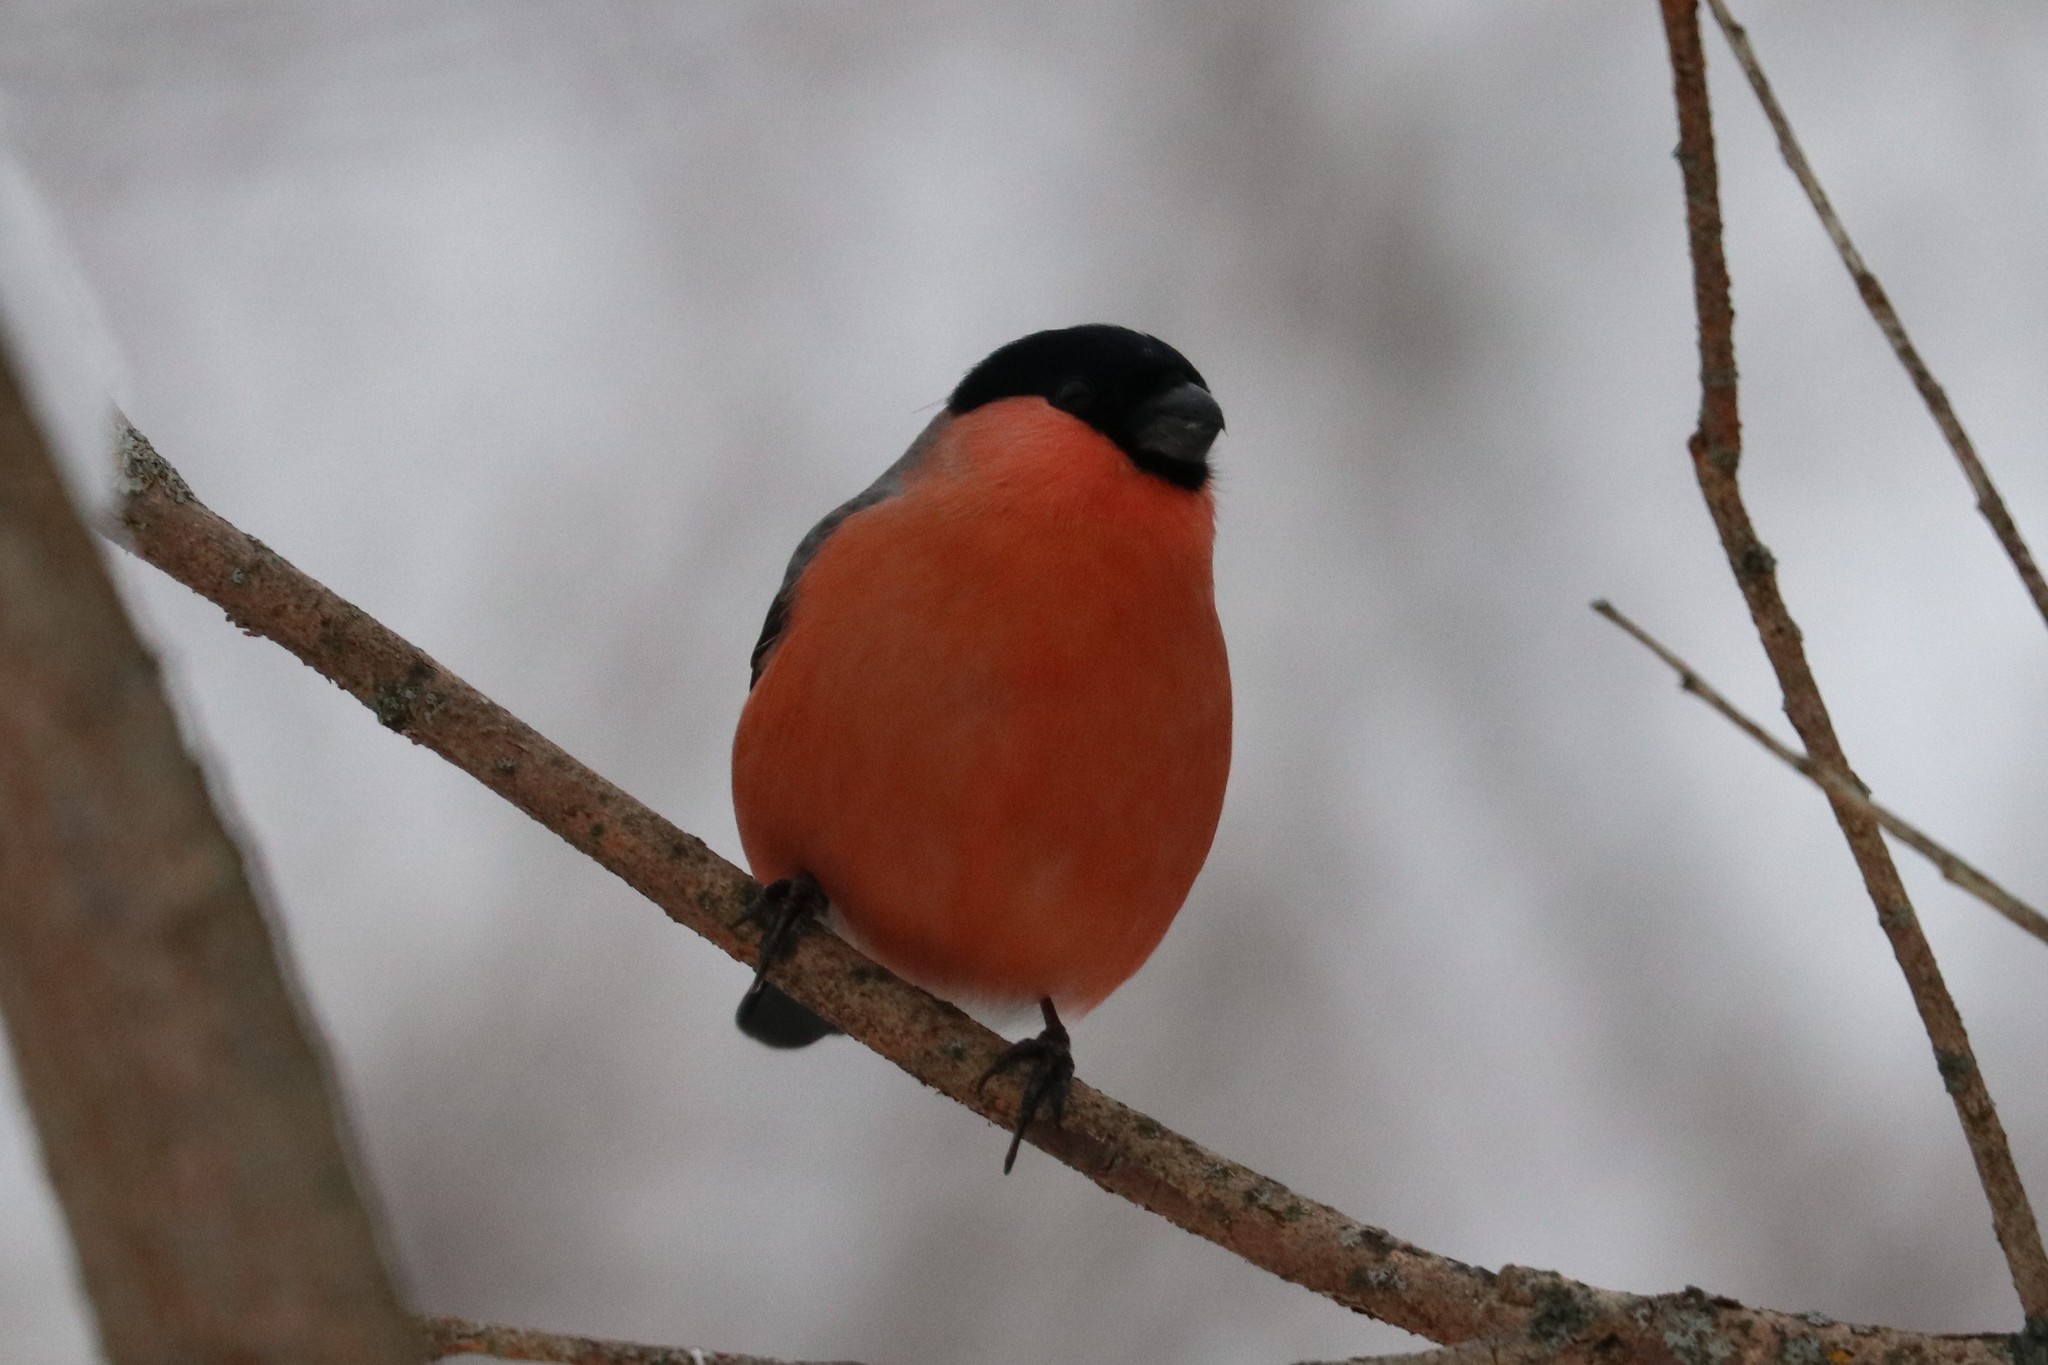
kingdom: Animalia
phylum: Chordata
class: Aves
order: Passeriformes
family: Fringillidae
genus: Pyrrhula
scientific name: Pyrrhula pyrrhula
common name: Eurasian bullfinch
